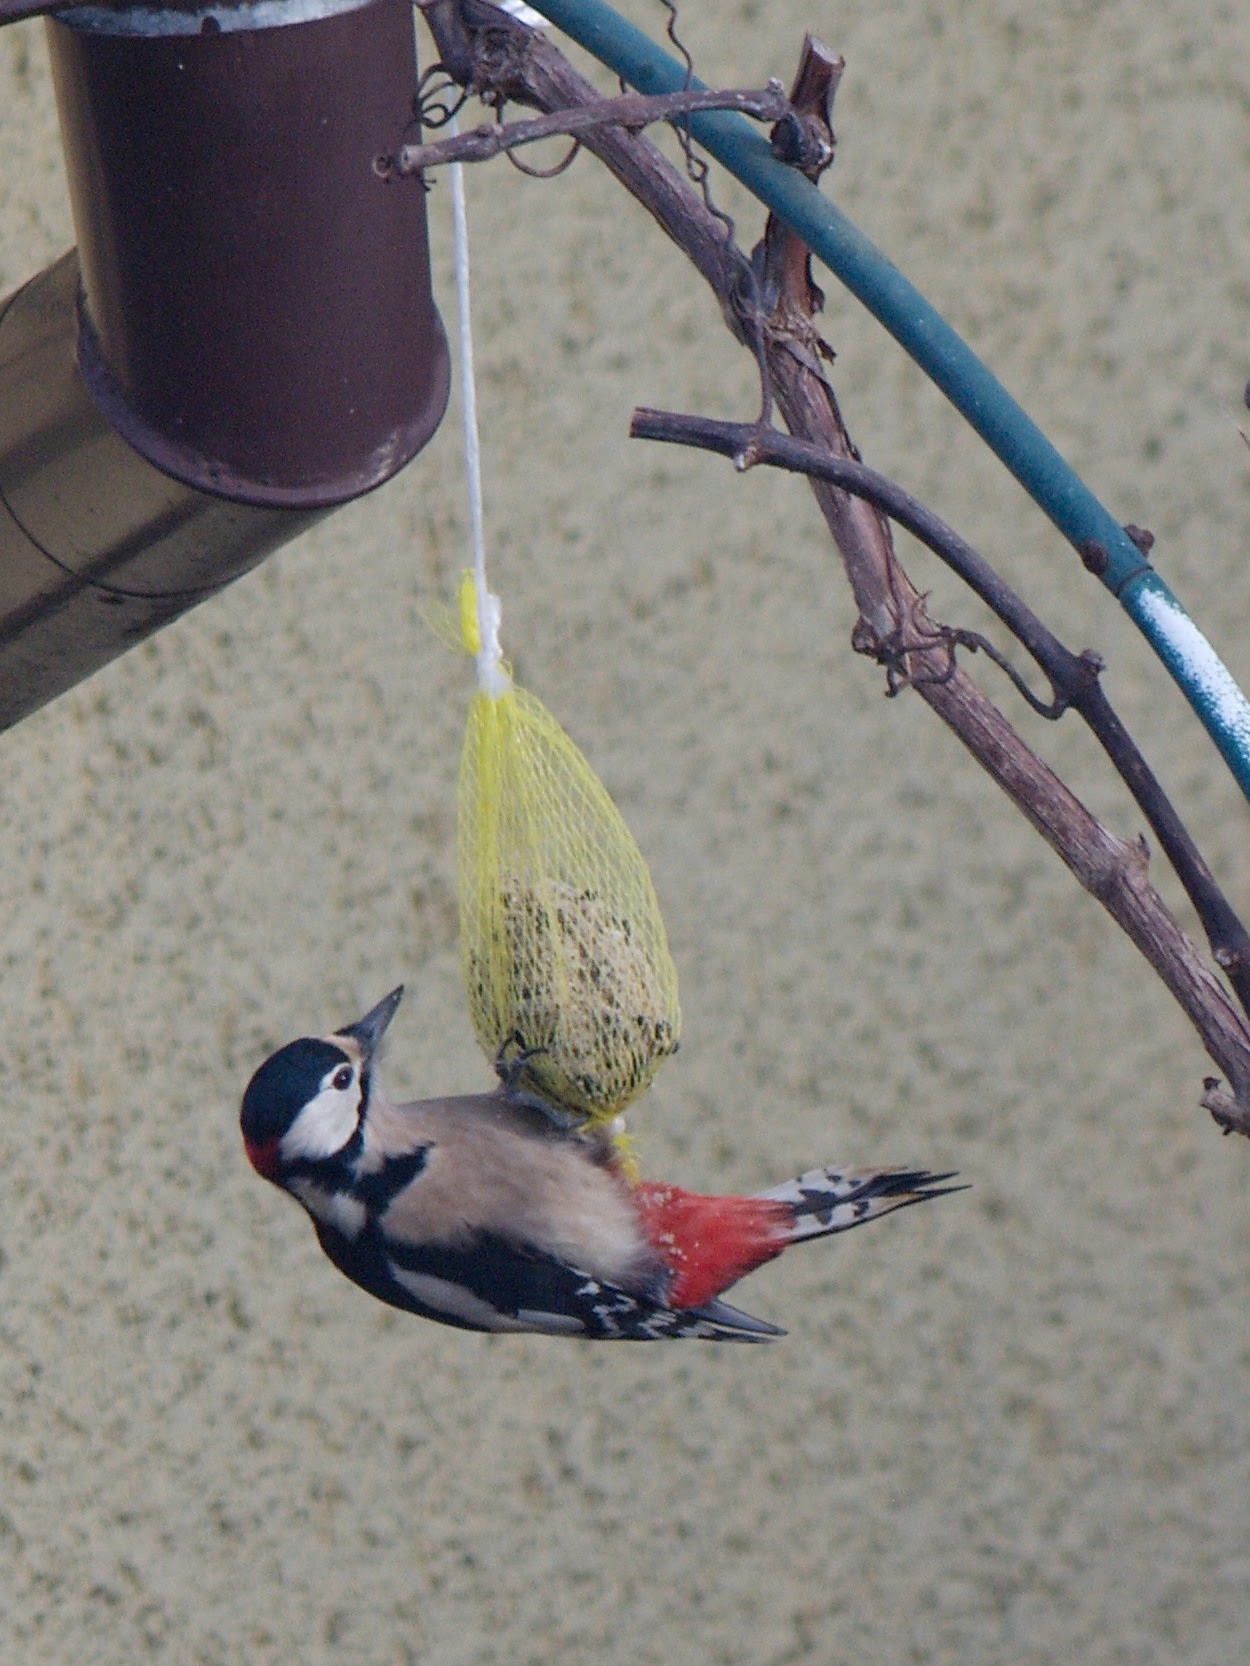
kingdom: Animalia
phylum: Chordata
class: Aves
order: Piciformes
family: Picidae
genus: Dendrocopos
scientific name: Dendrocopos major
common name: Great spotted woodpecker
